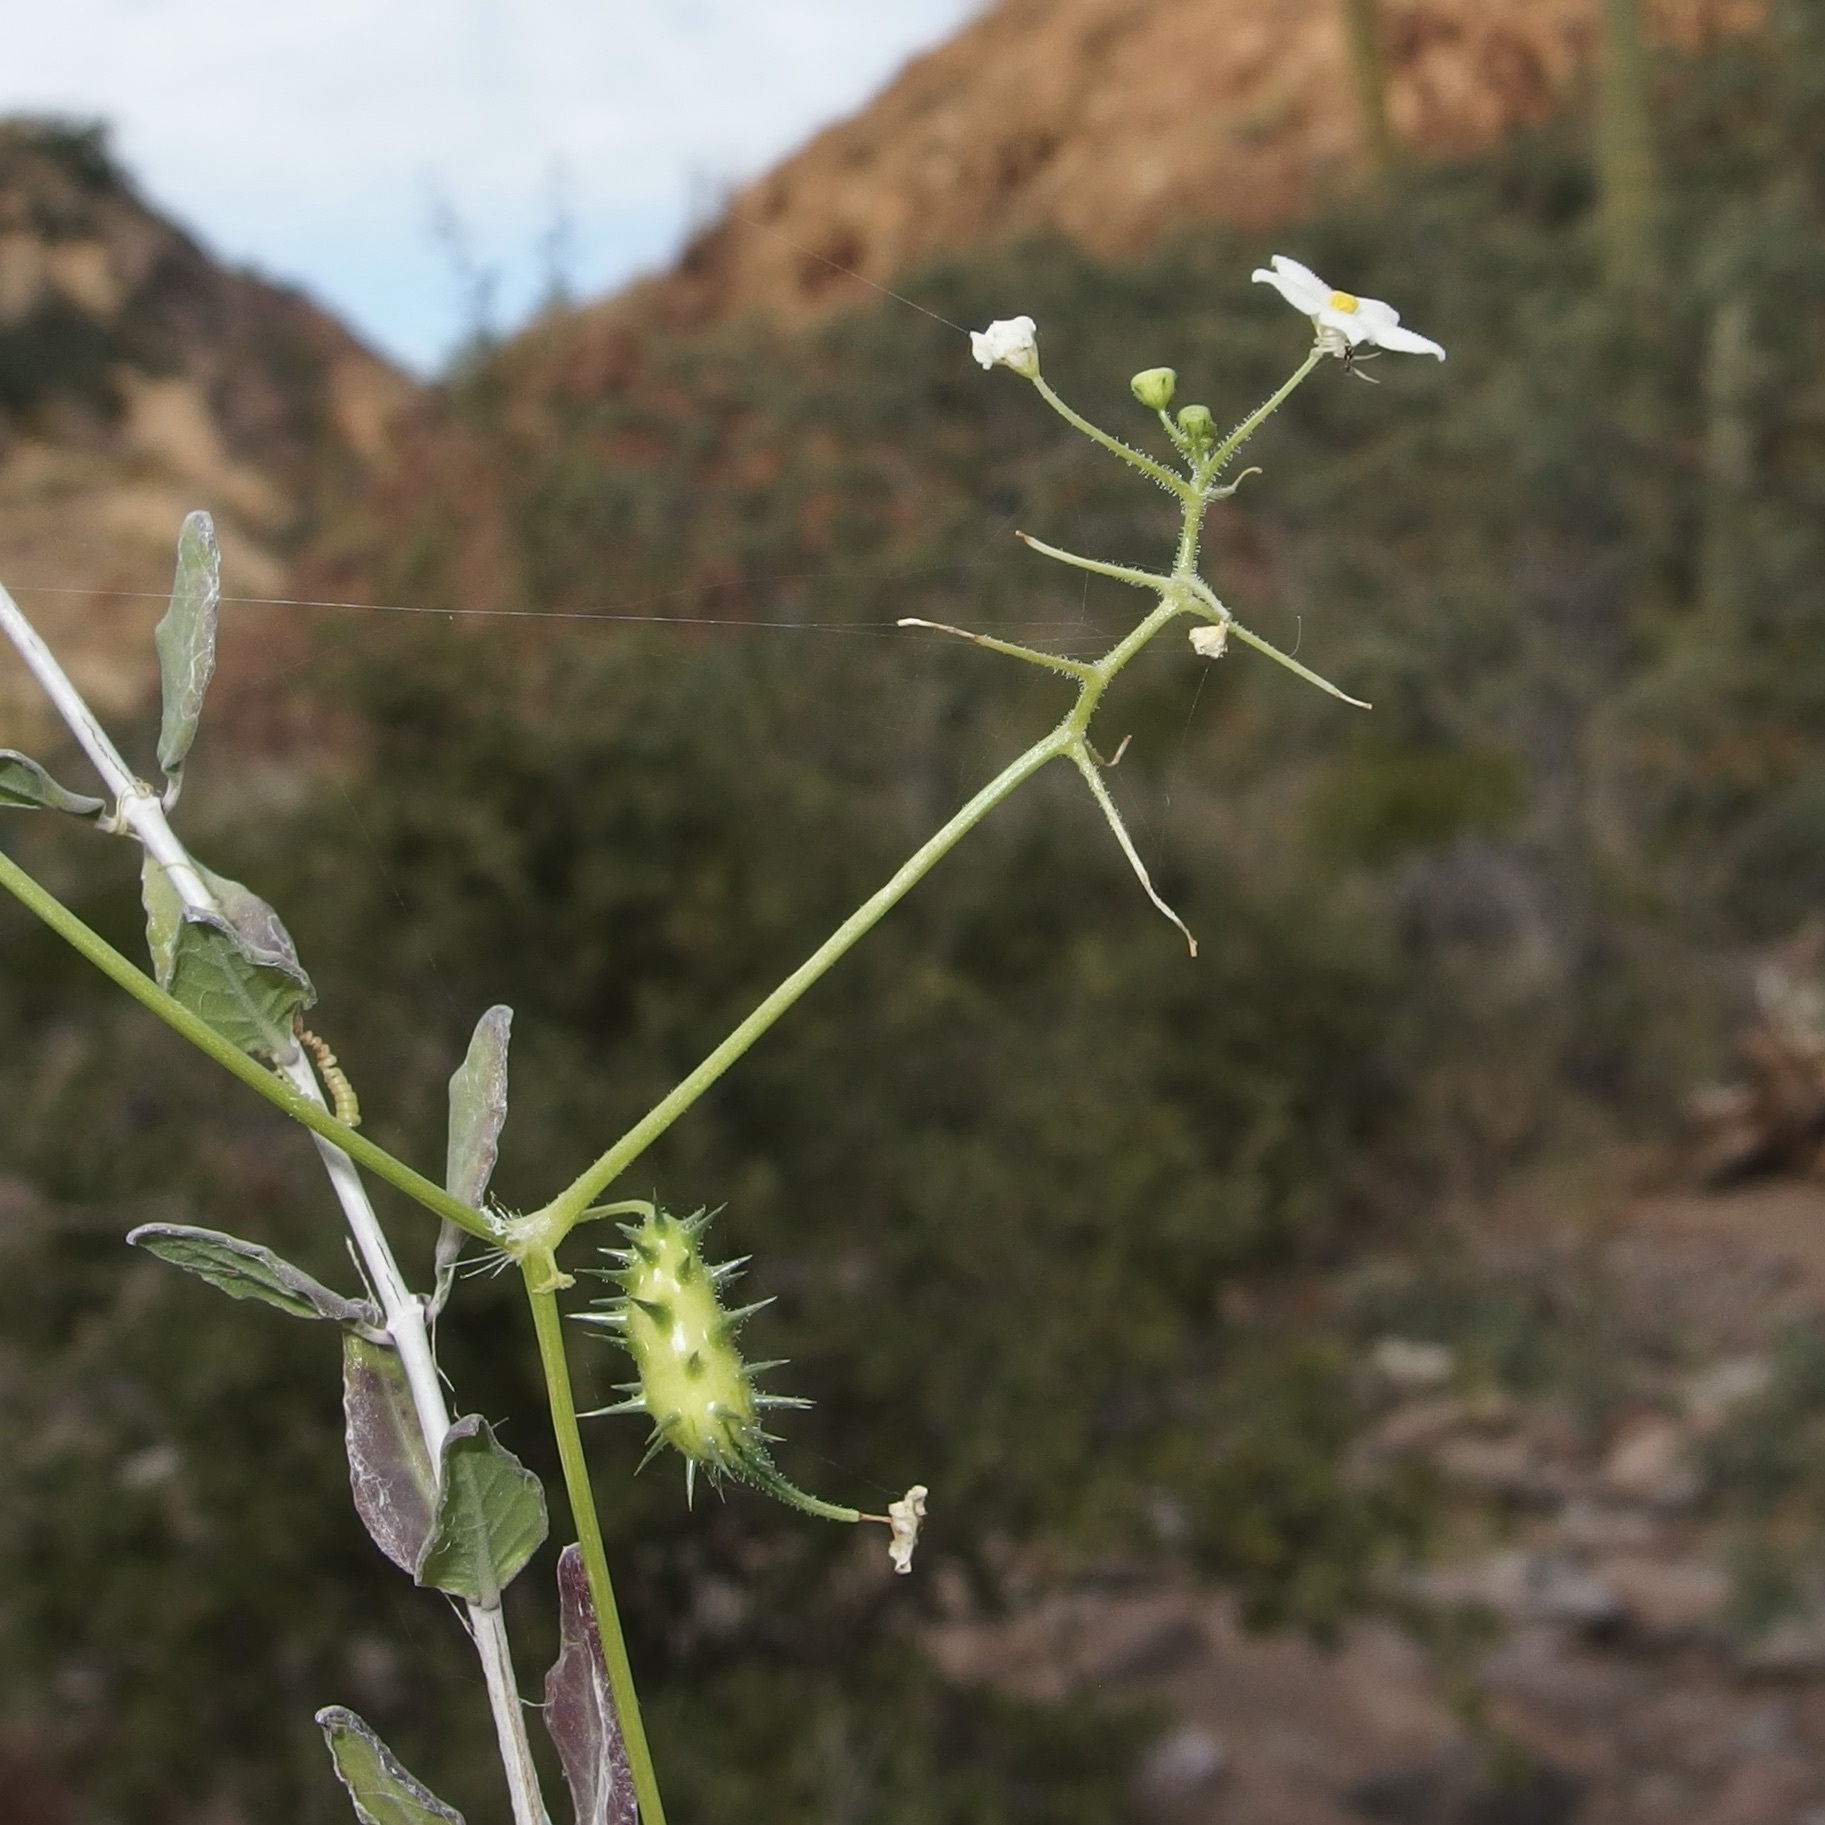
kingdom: Plantae
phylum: Tracheophyta
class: Magnoliopsida
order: Cucurbitales
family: Cucurbitaceae
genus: Echinopepon
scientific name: Echinopepon minimus
